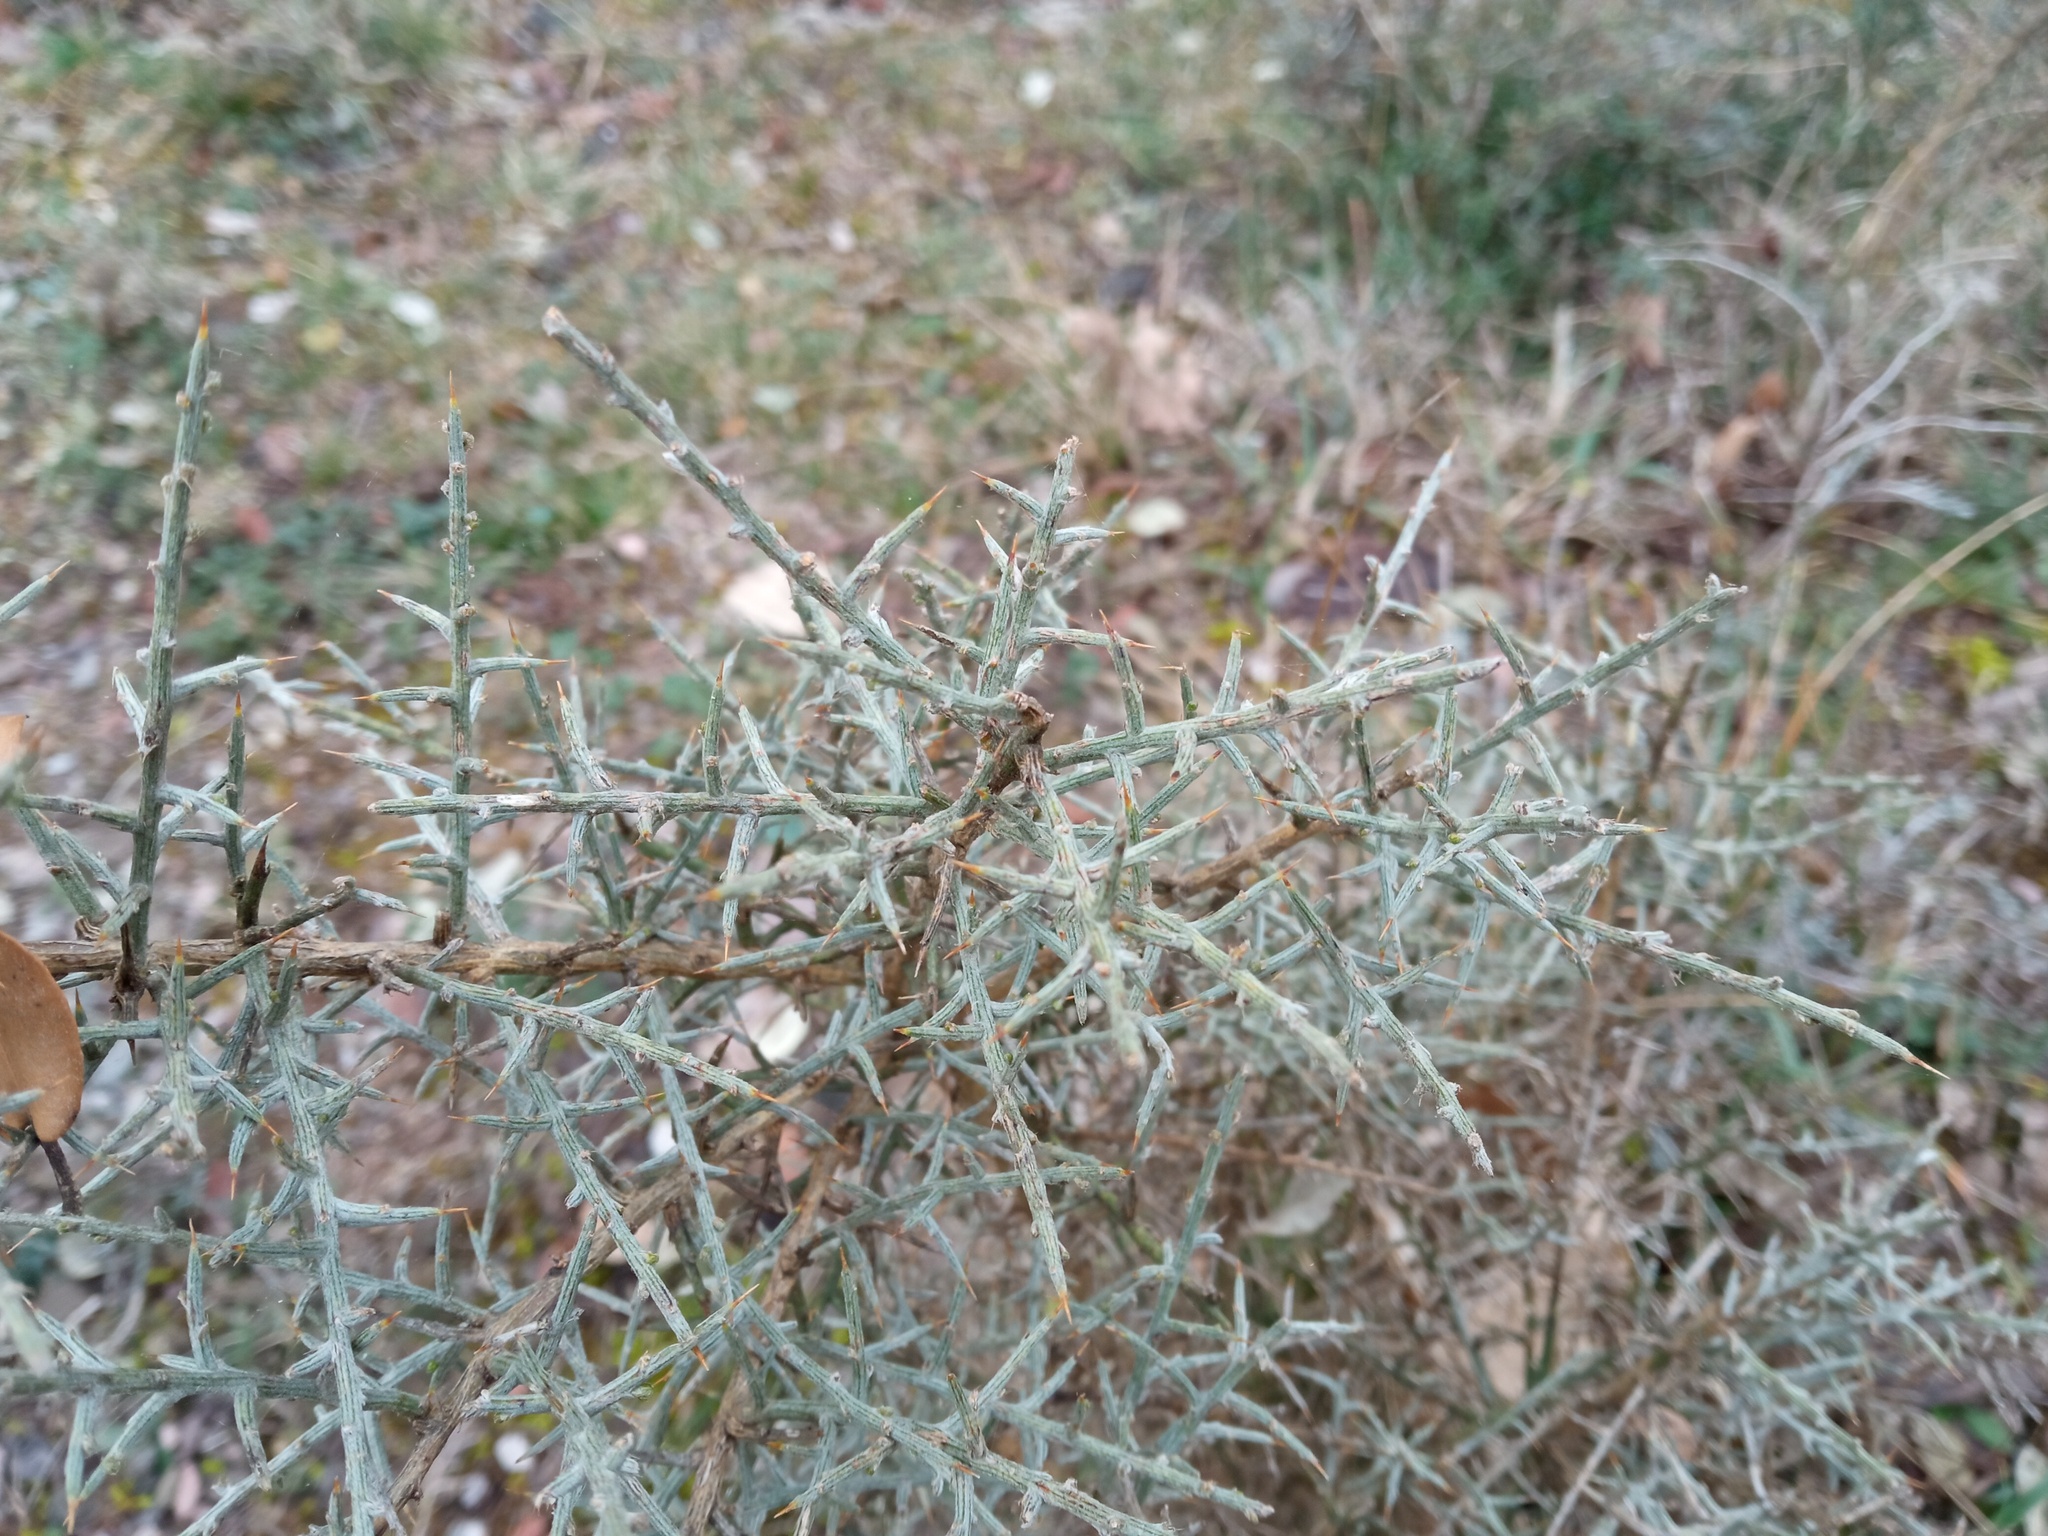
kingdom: Plantae
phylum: Tracheophyta
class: Magnoliopsida
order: Fabales
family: Fabaceae
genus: Genista
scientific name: Genista scorpius
